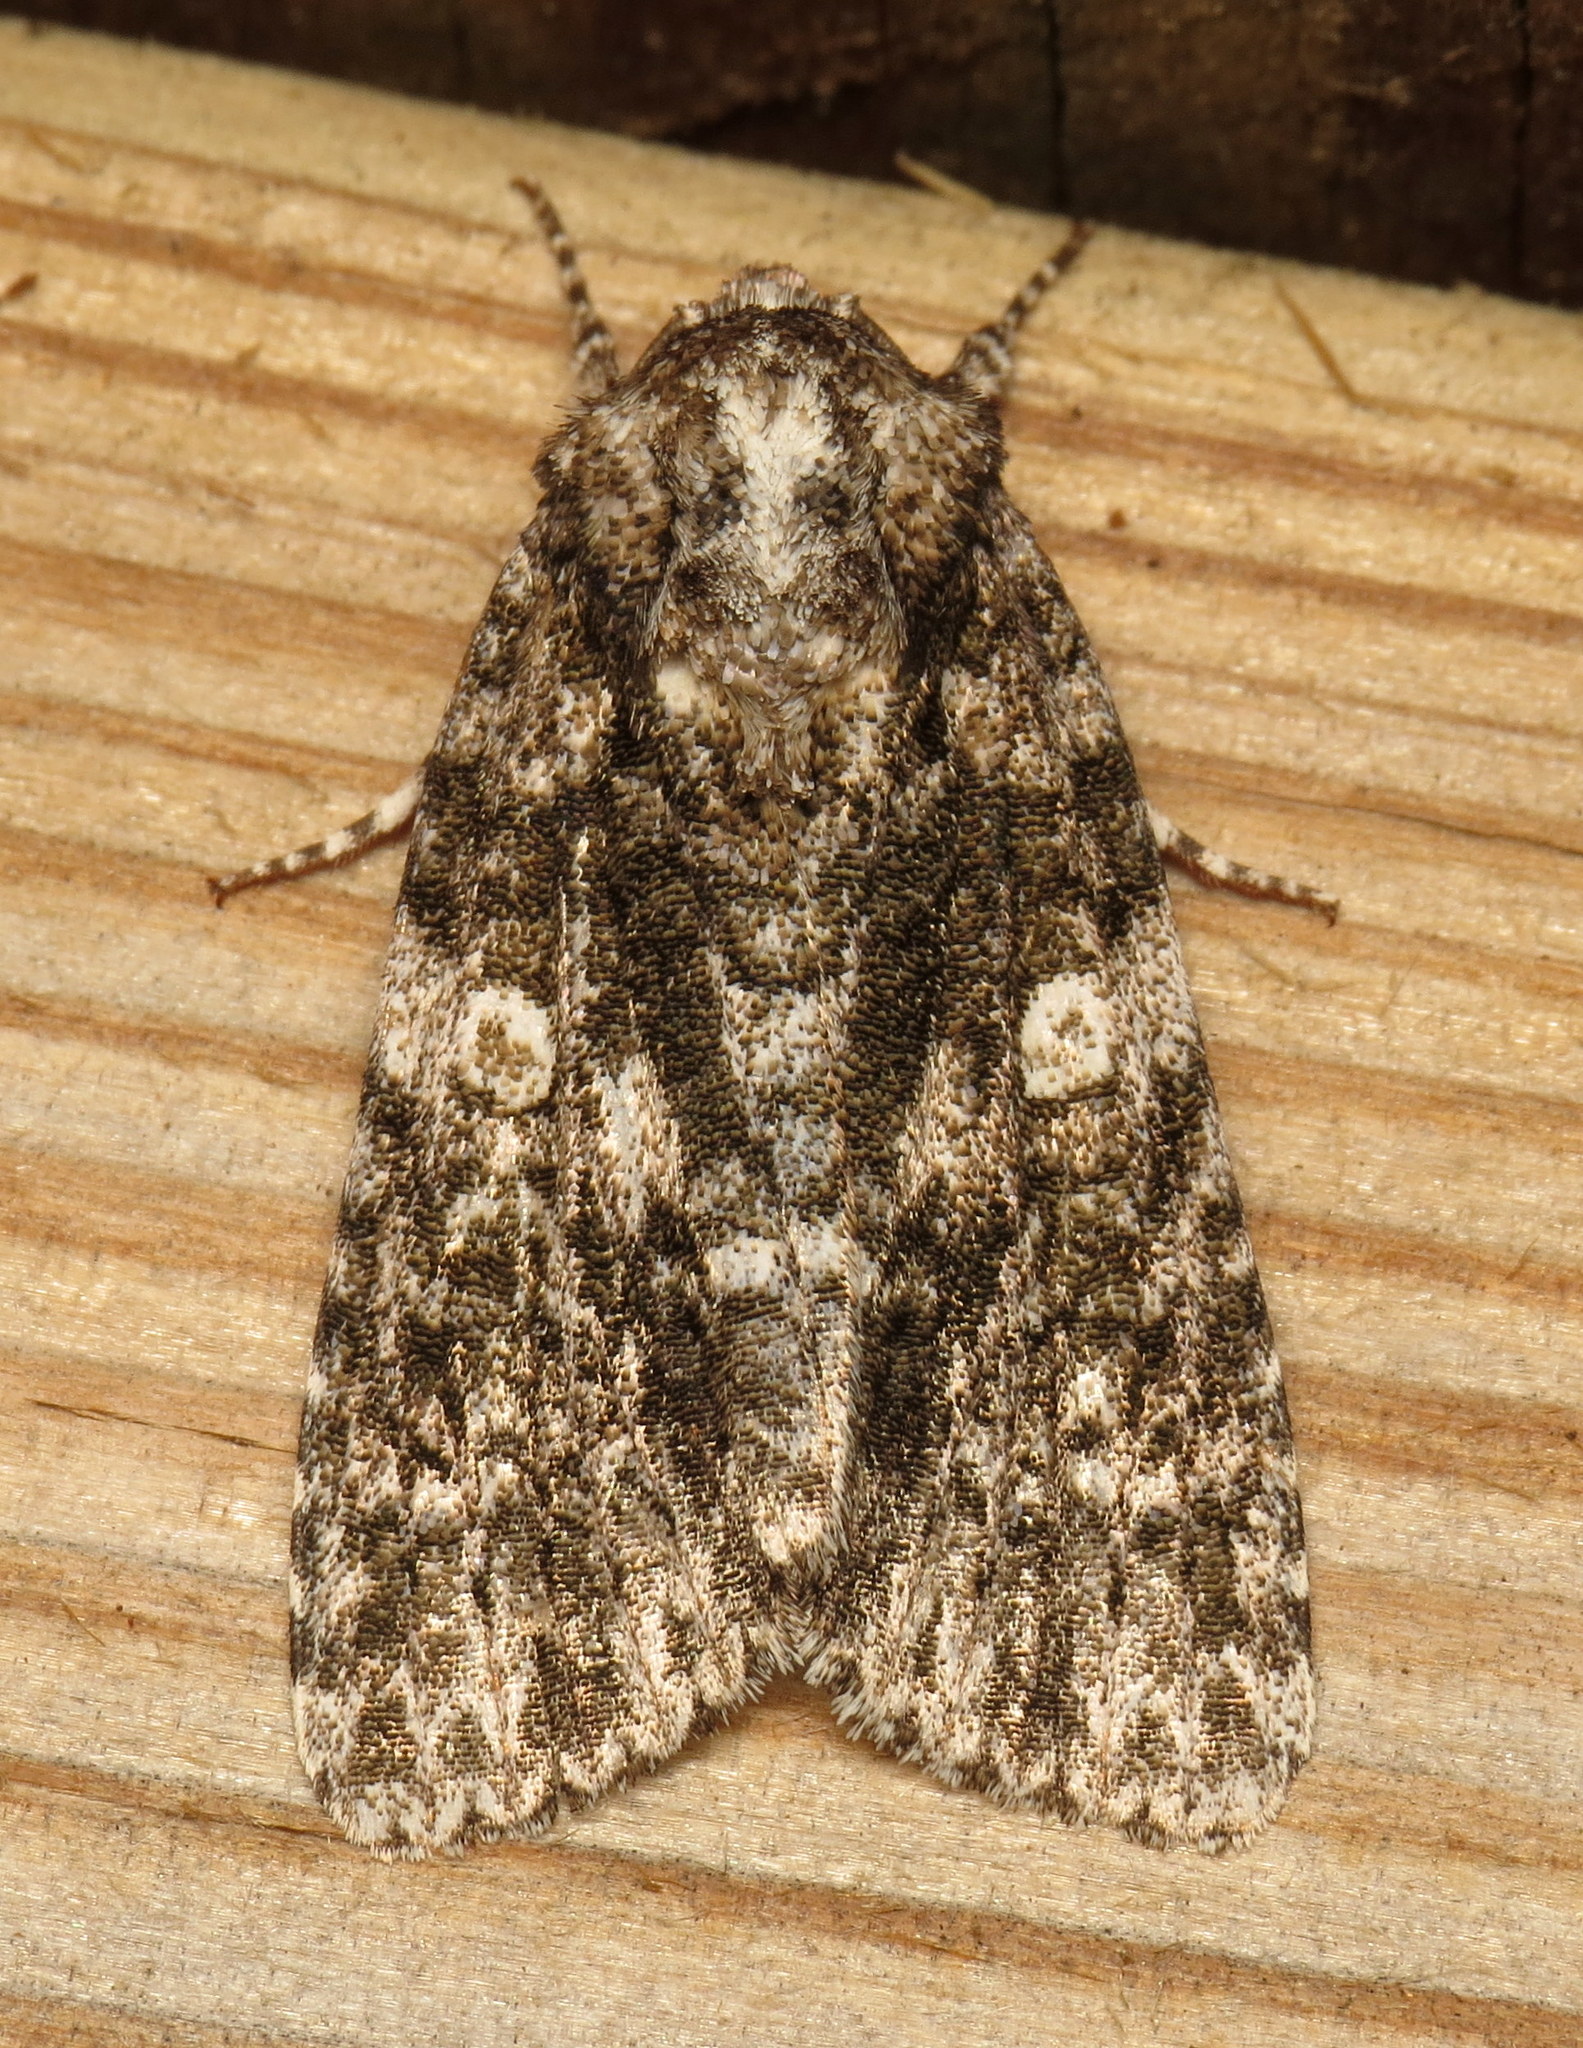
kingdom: Animalia
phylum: Arthropoda
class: Insecta
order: Lepidoptera
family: Noctuidae
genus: Acronicta
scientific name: Acronicta afflicta
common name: Afflicted dagger moth
